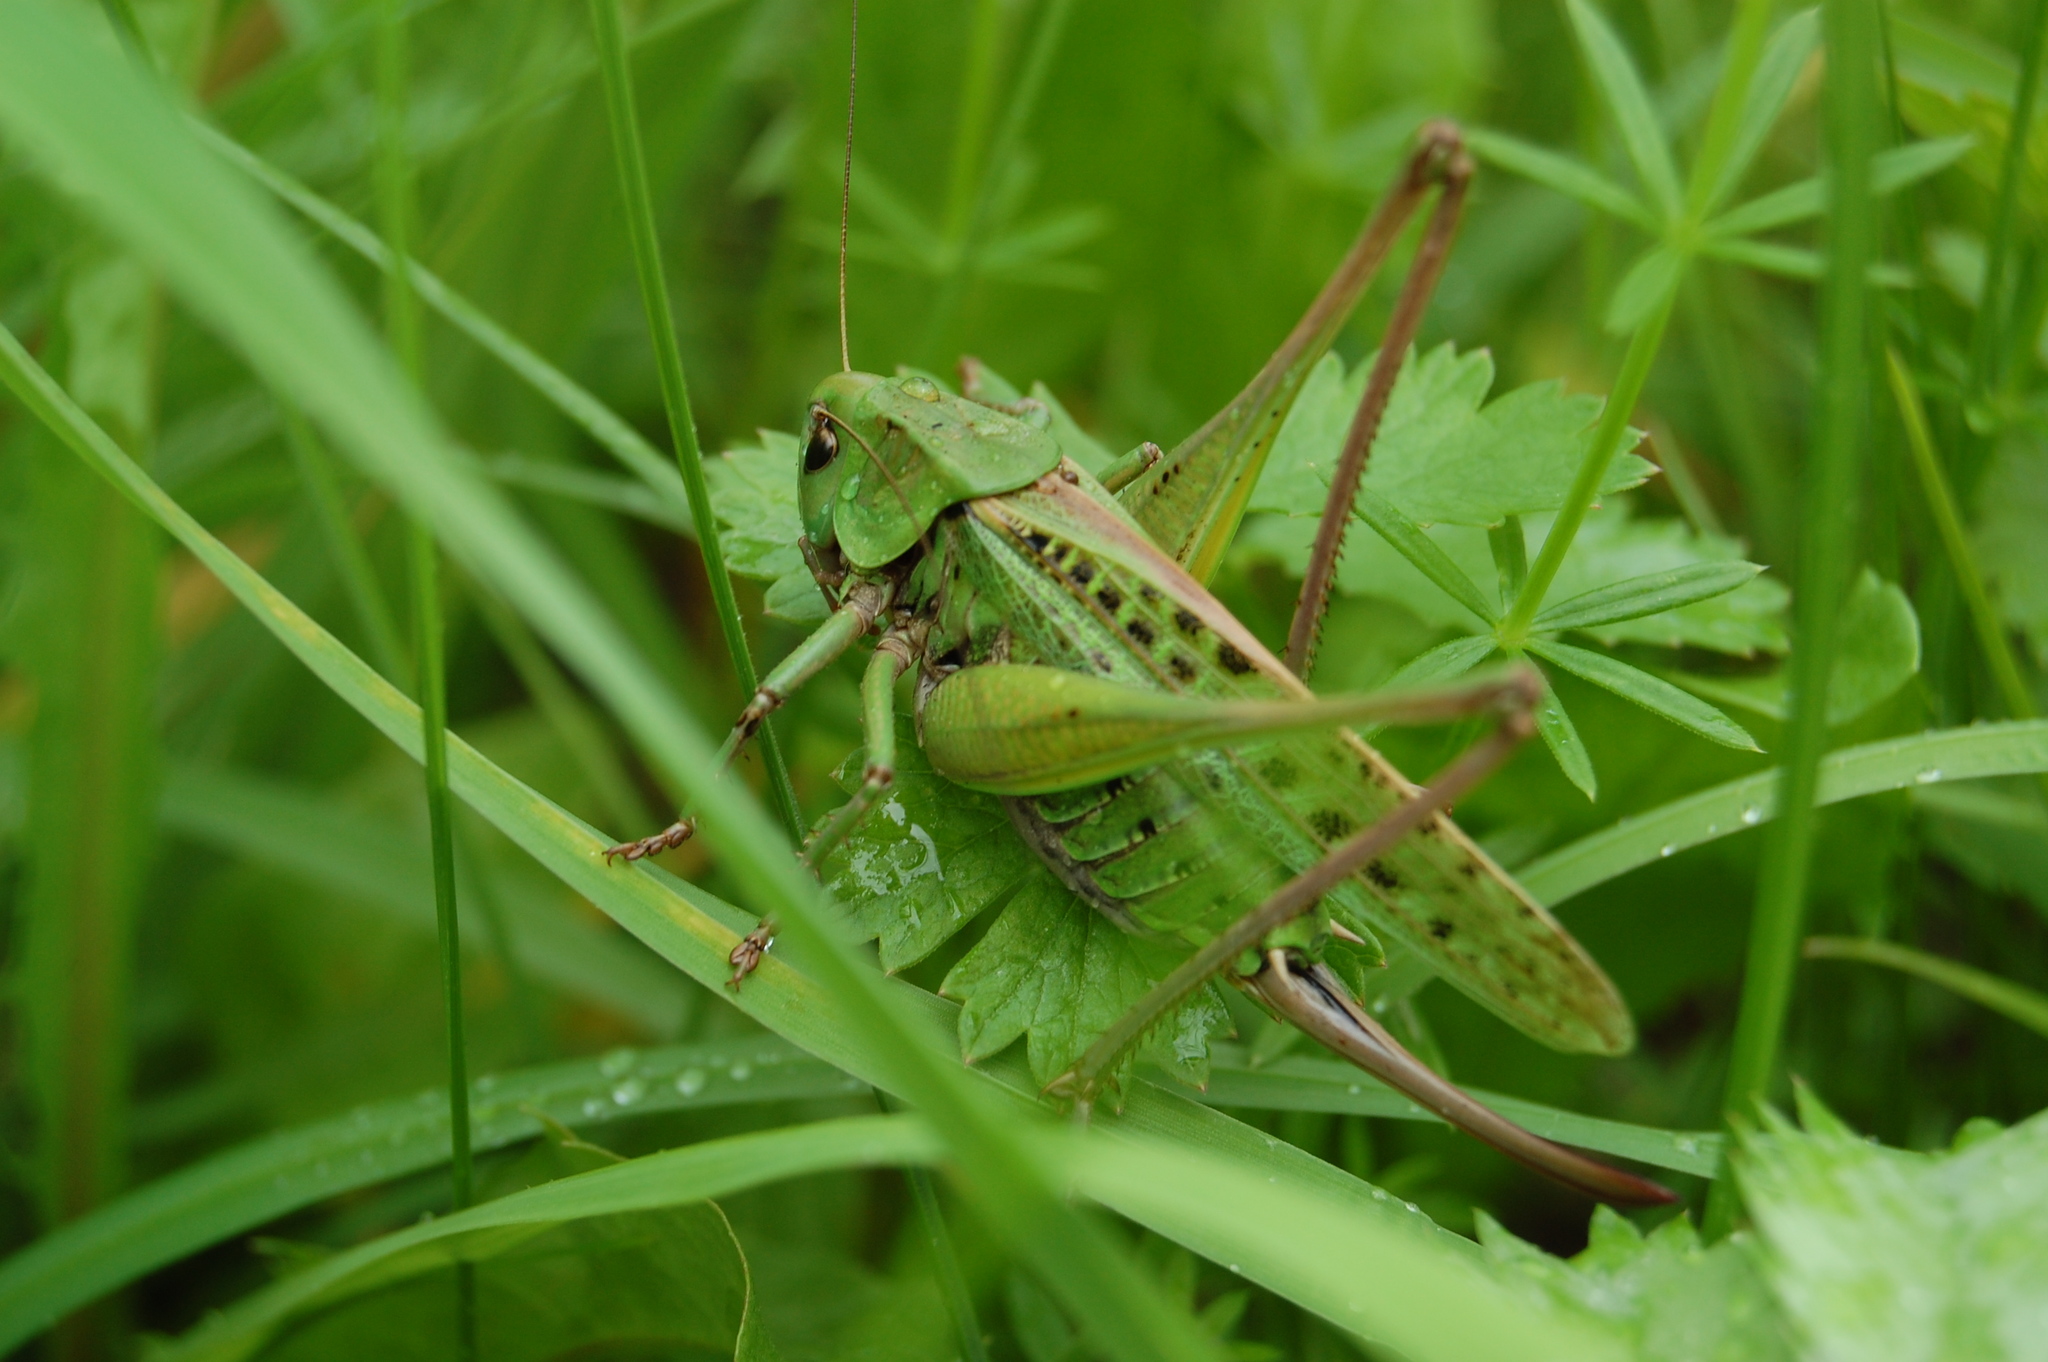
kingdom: Animalia
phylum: Arthropoda
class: Insecta
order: Orthoptera
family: Tettigoniidae
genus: Decticus
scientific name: Decticus verrucivorus
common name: Wart-biter
